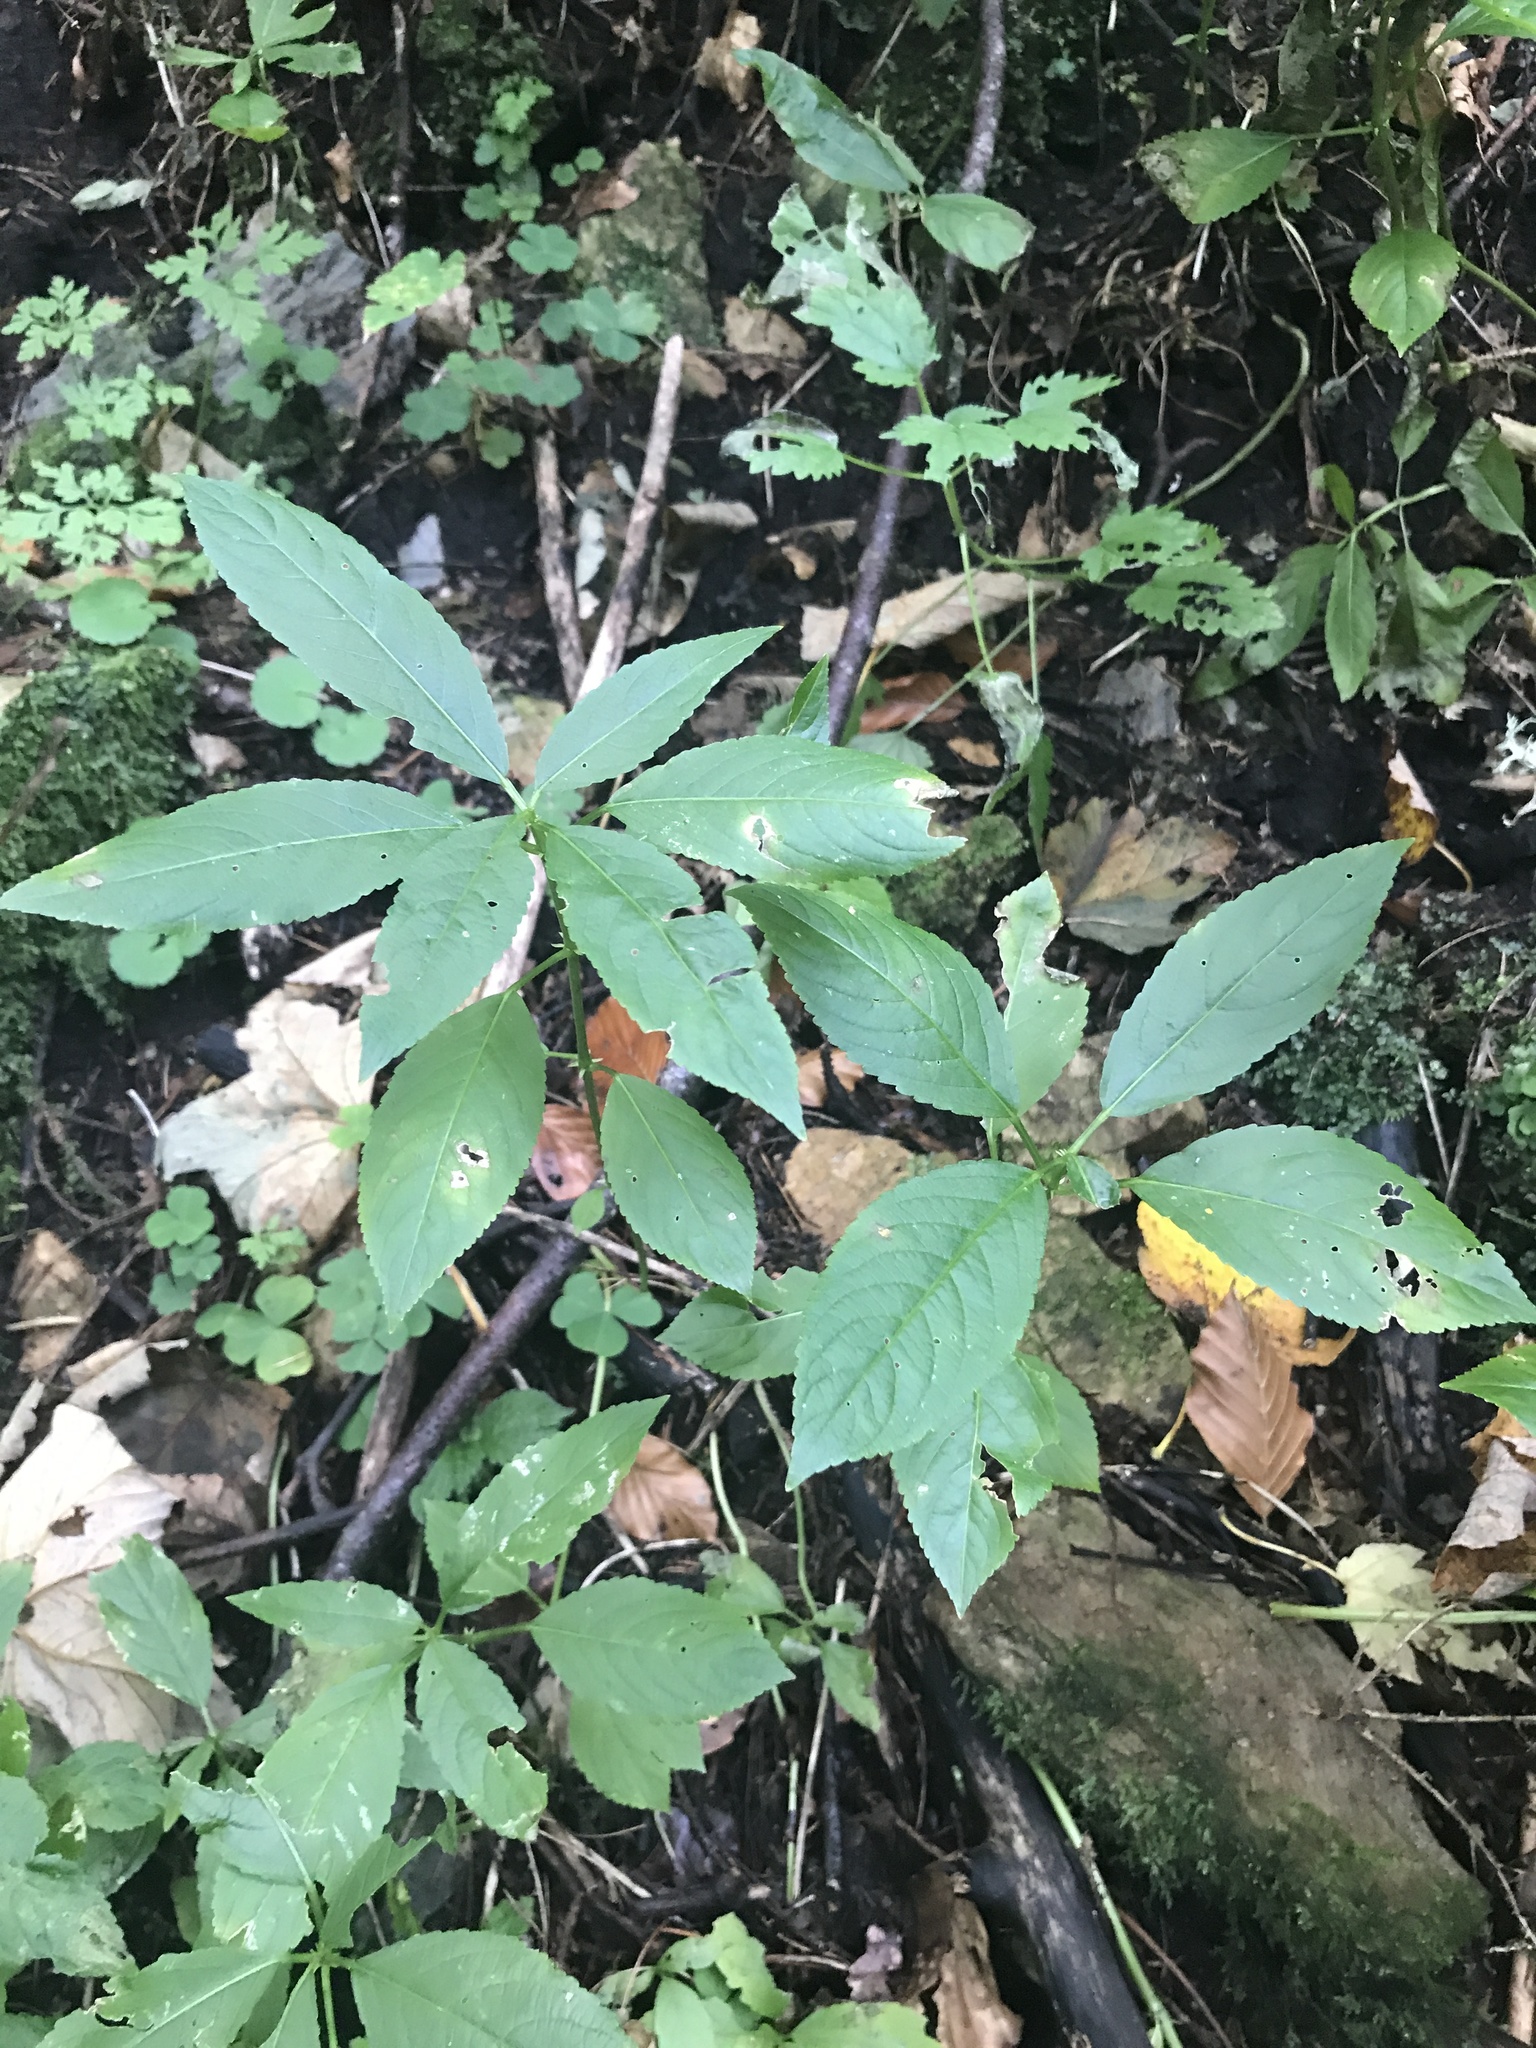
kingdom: Plantae
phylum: Tracheophyta
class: Magnoliopsida
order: Malpighiales
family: Euphorbiaceae
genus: Mercurialis
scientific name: Mercurialis perennis
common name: Dog mercury
